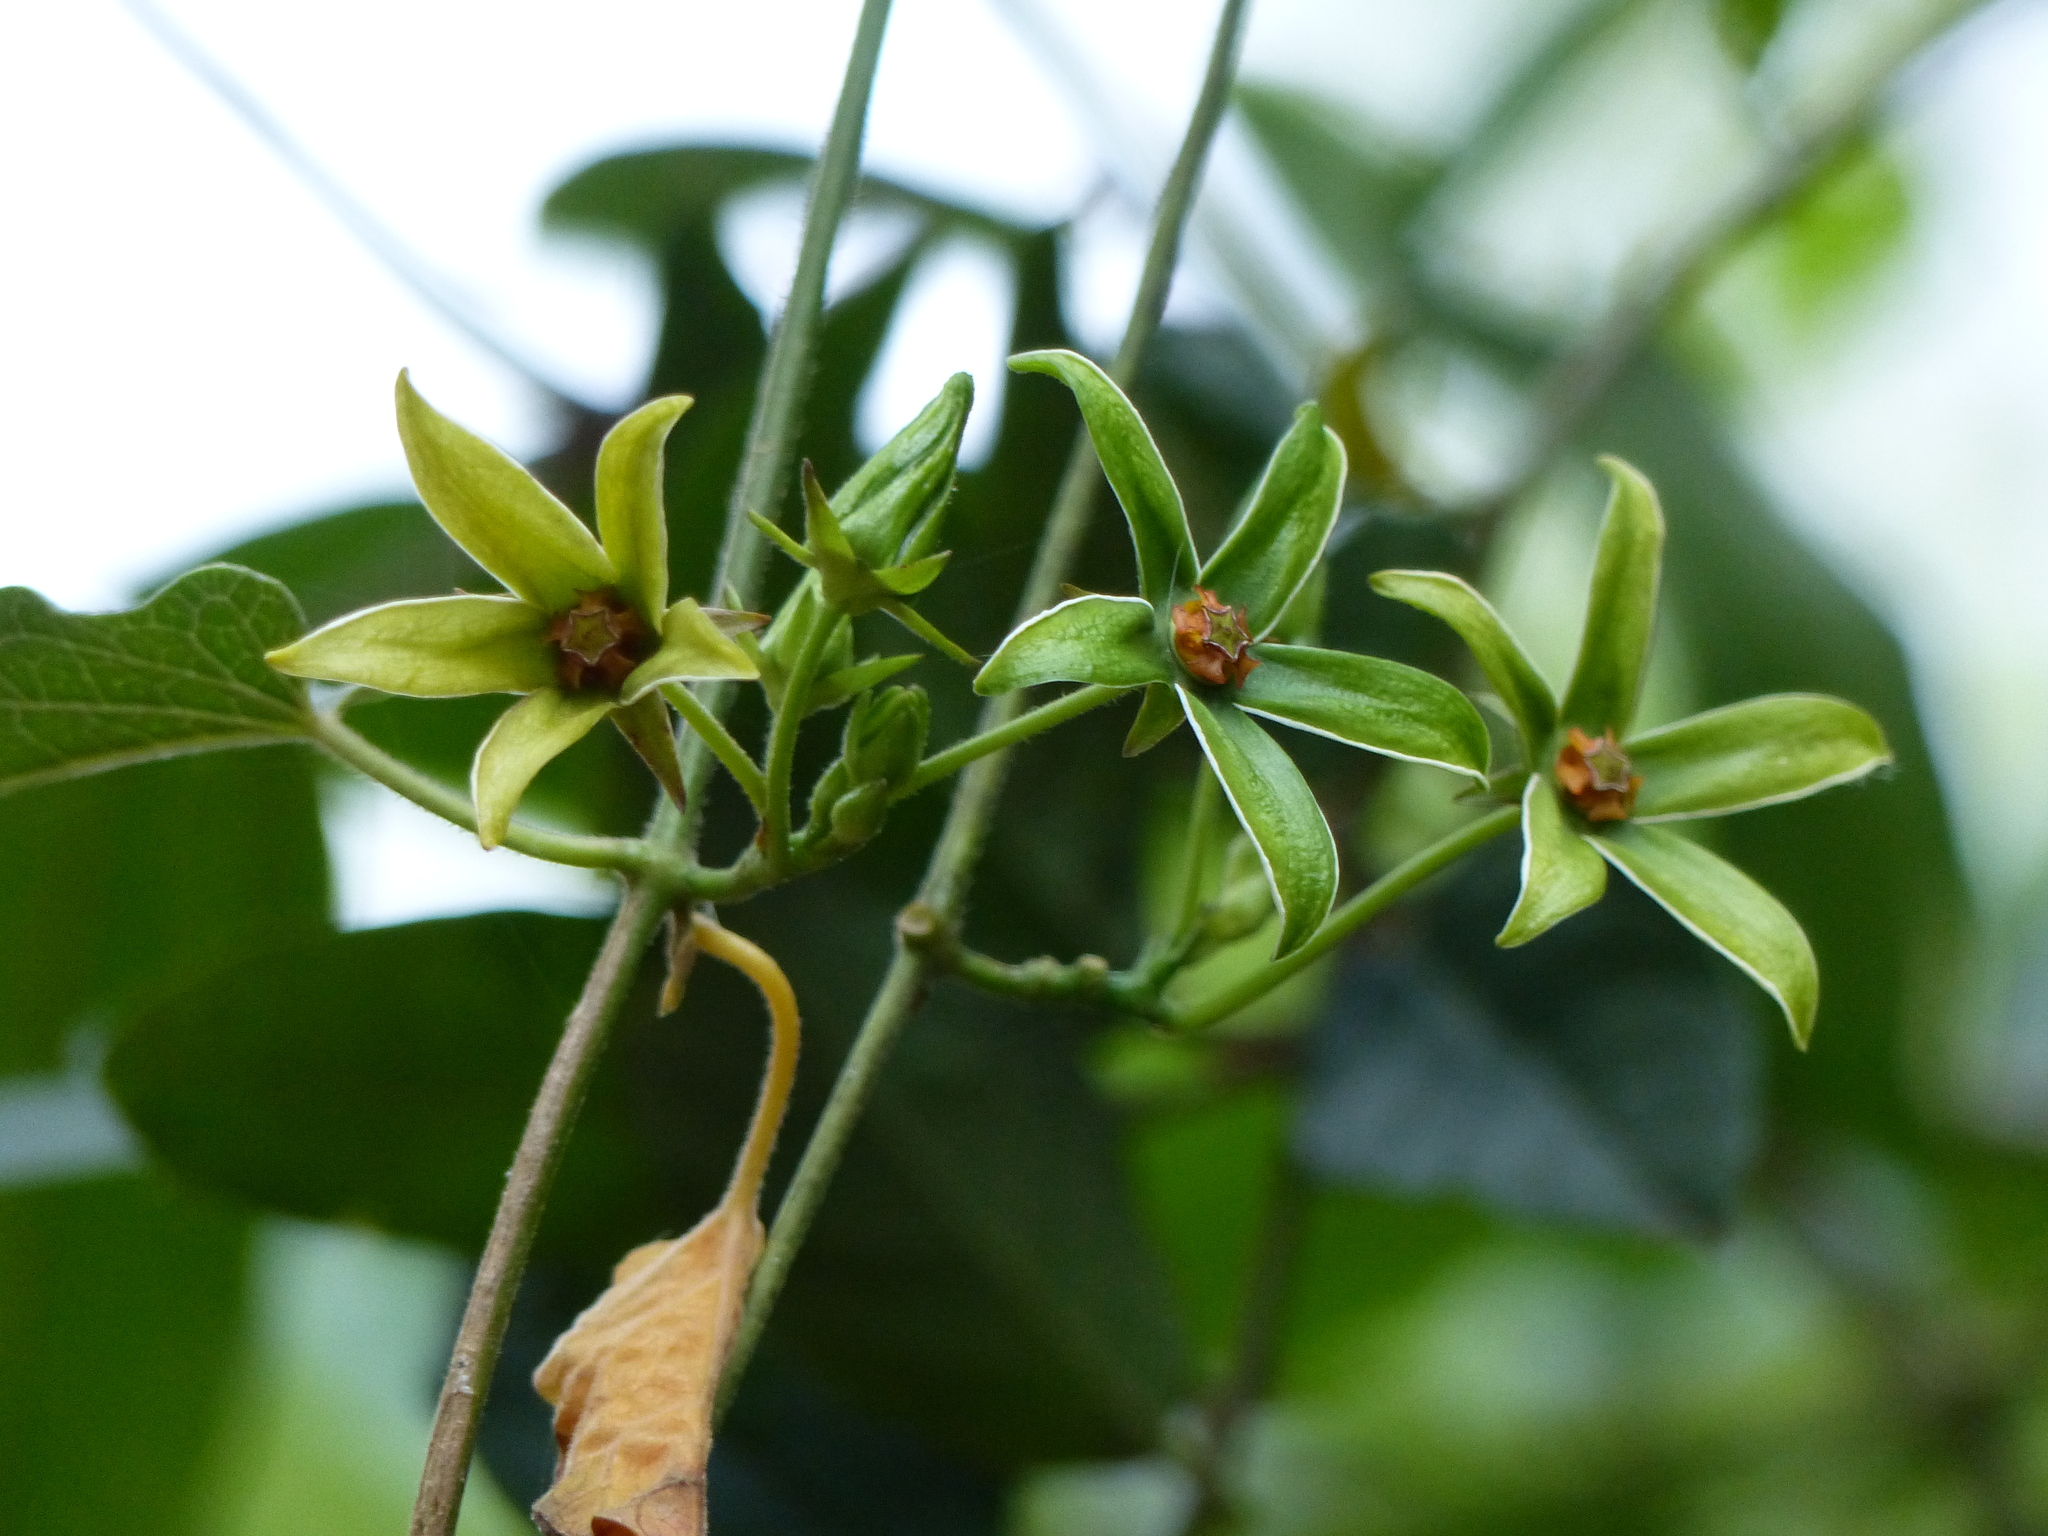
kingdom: Plantae
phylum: Tracheophyta
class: Magnoliopsida
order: Gentianales
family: Apocynaceae
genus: Gonolobus
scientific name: Gonolobus rostratus
